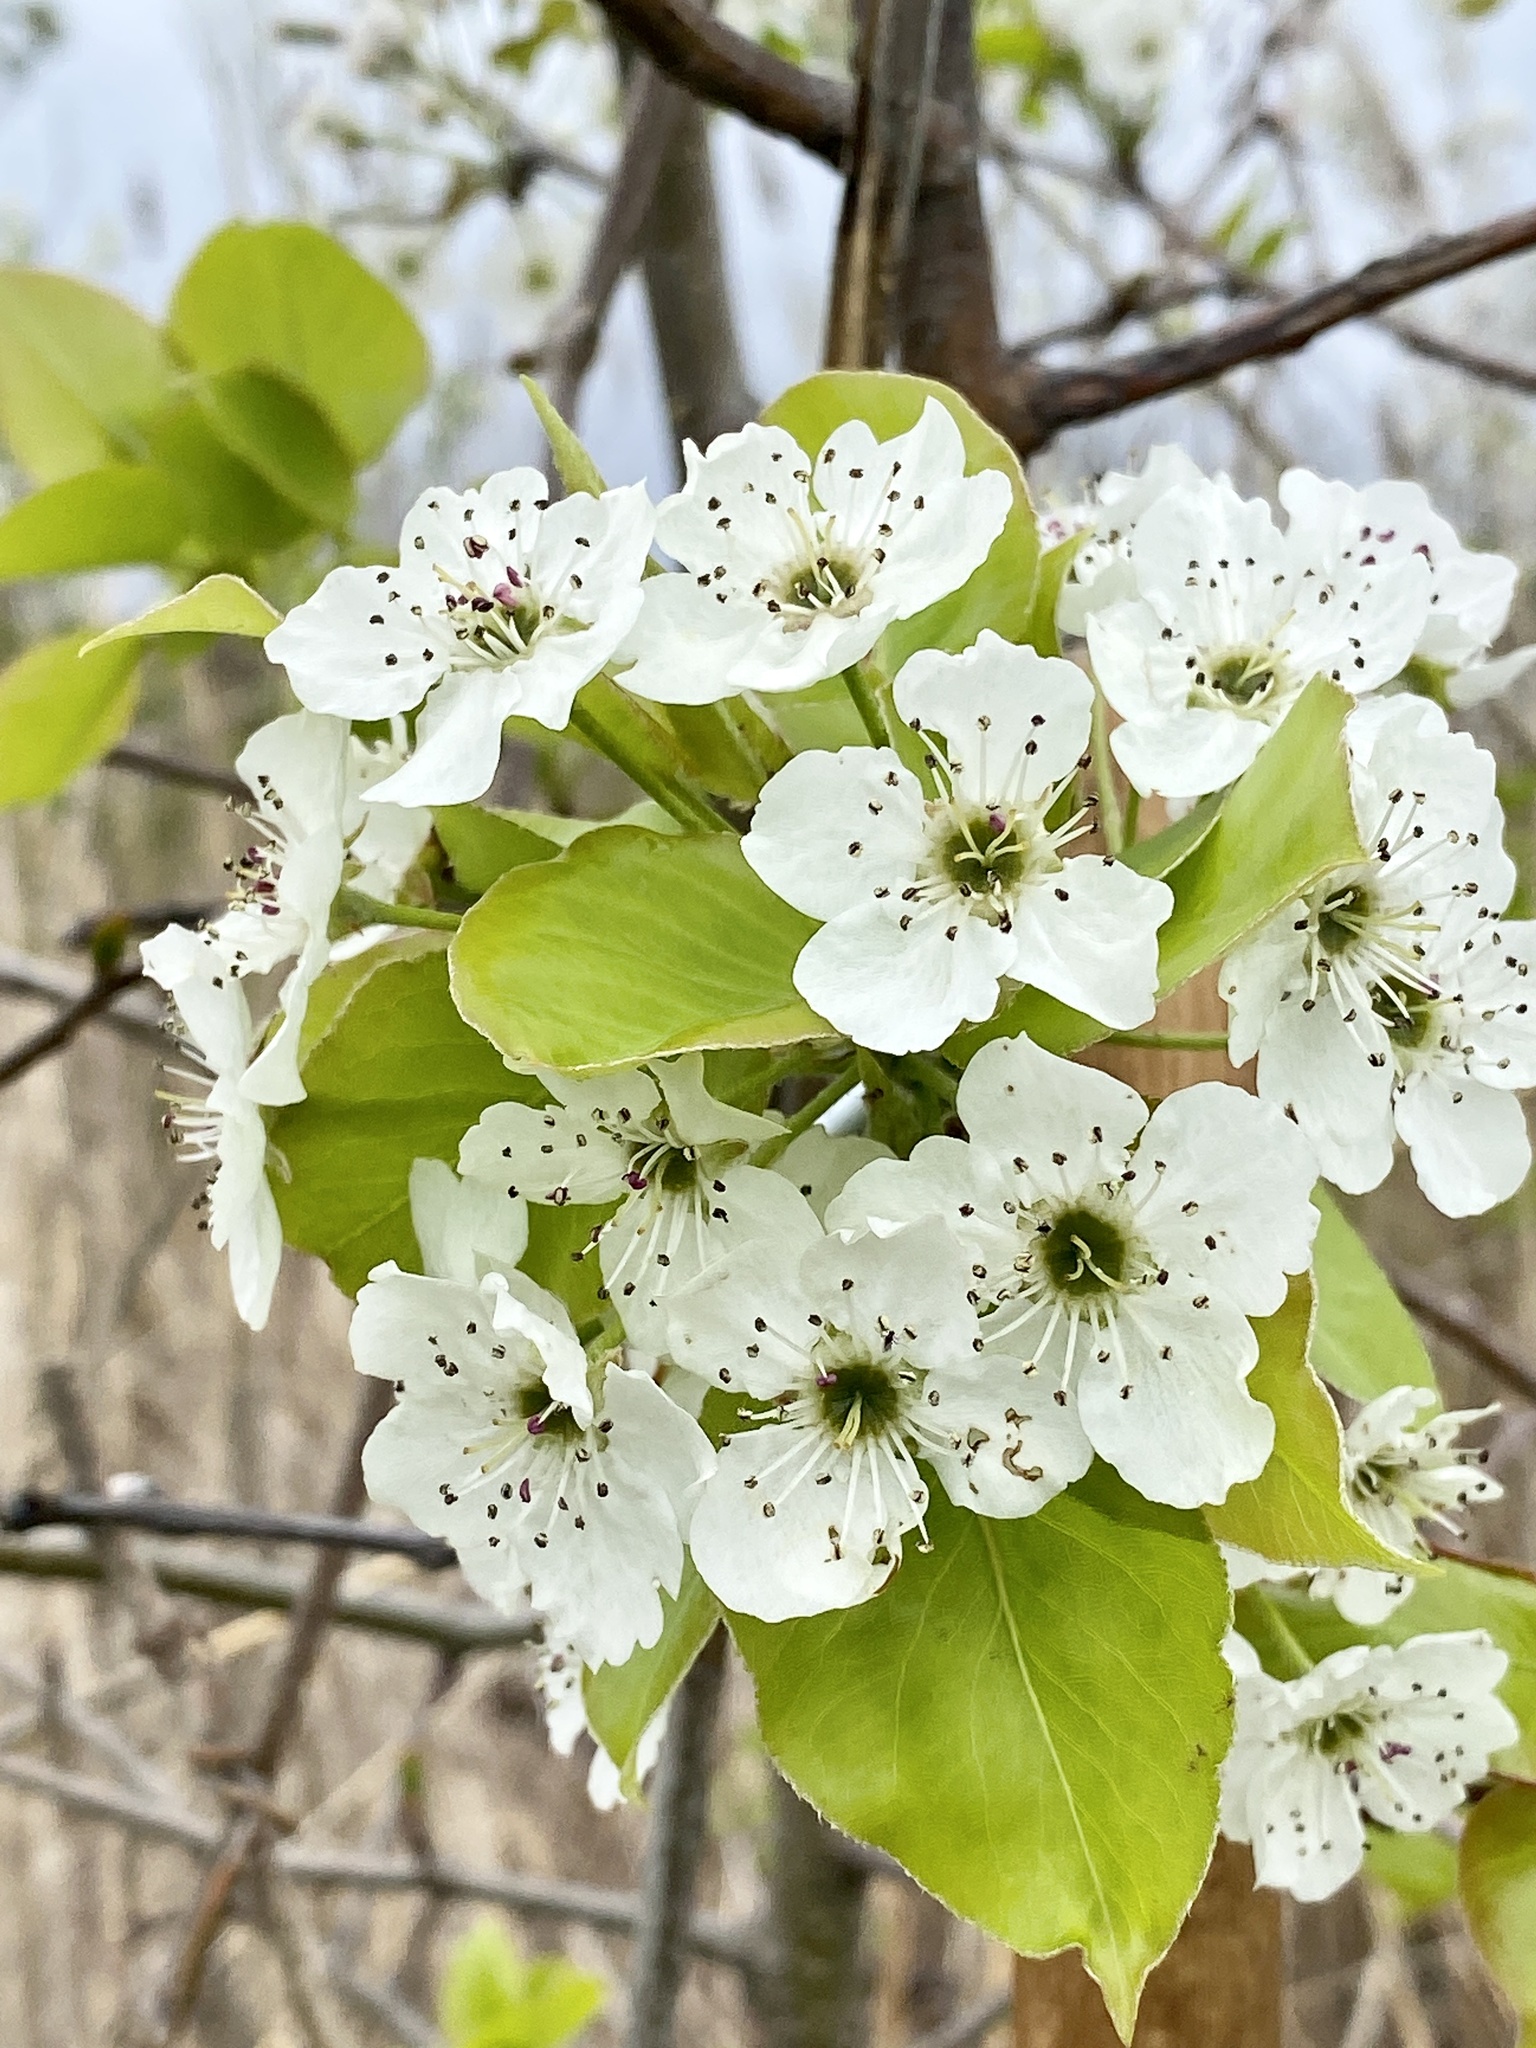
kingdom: Plantae
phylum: Tracheophyta
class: Magnoliopsida
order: Rosales
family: Rosaceae
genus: Pyrus
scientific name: Pyrus calleryana
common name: Callery pear
